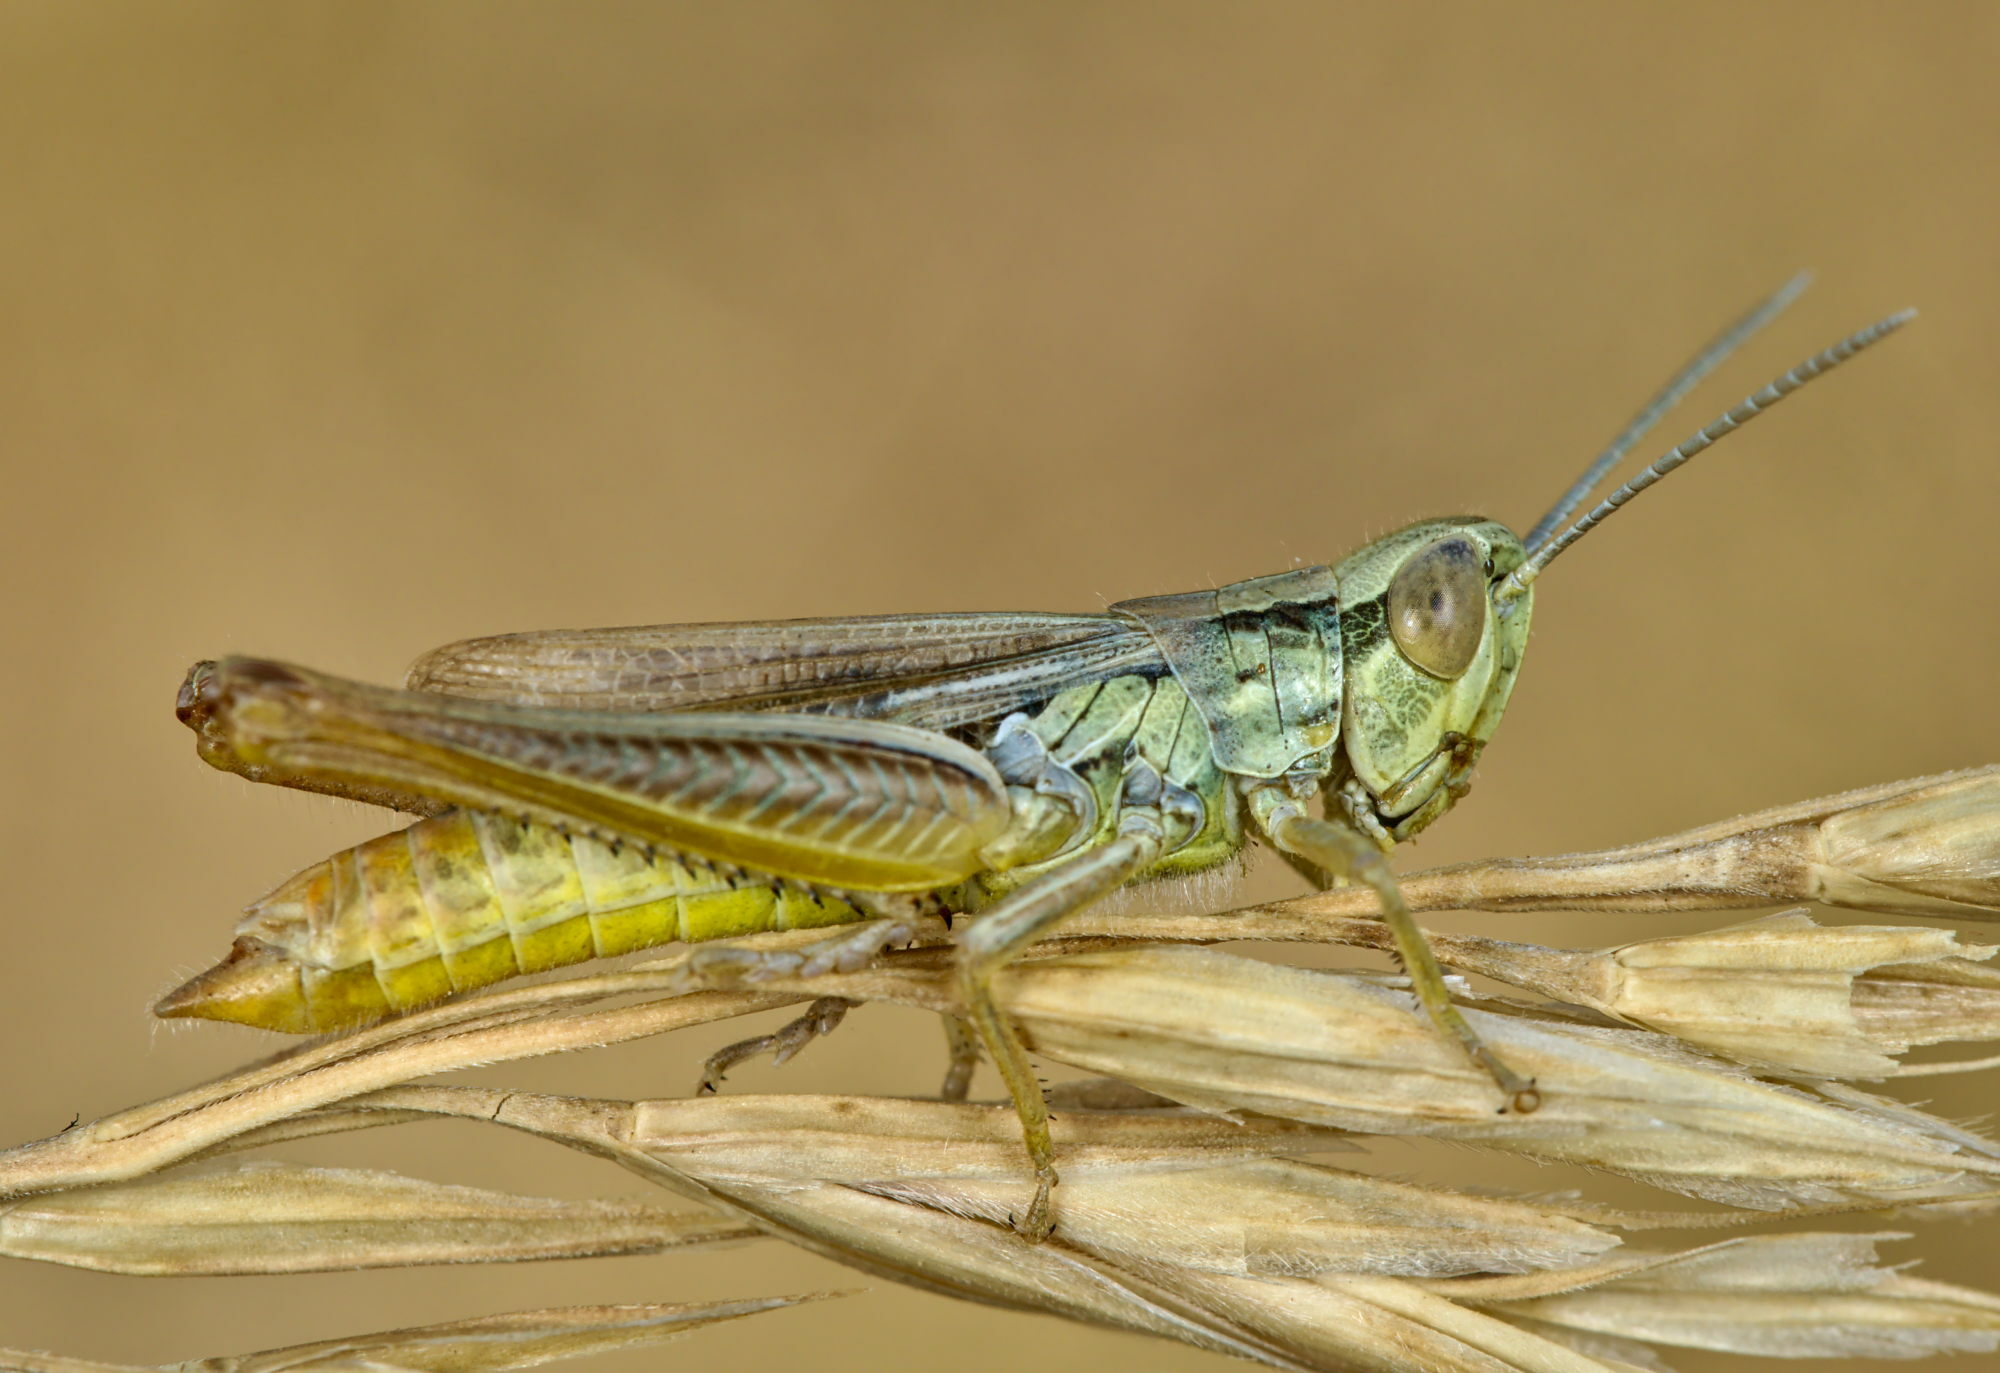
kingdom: Animalia
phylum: Arthropoda
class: Insecta
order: Orthoptera
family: Acrididae
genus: Euchorthippus
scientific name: Euchorthippus declivus
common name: Common straw grasshopper
